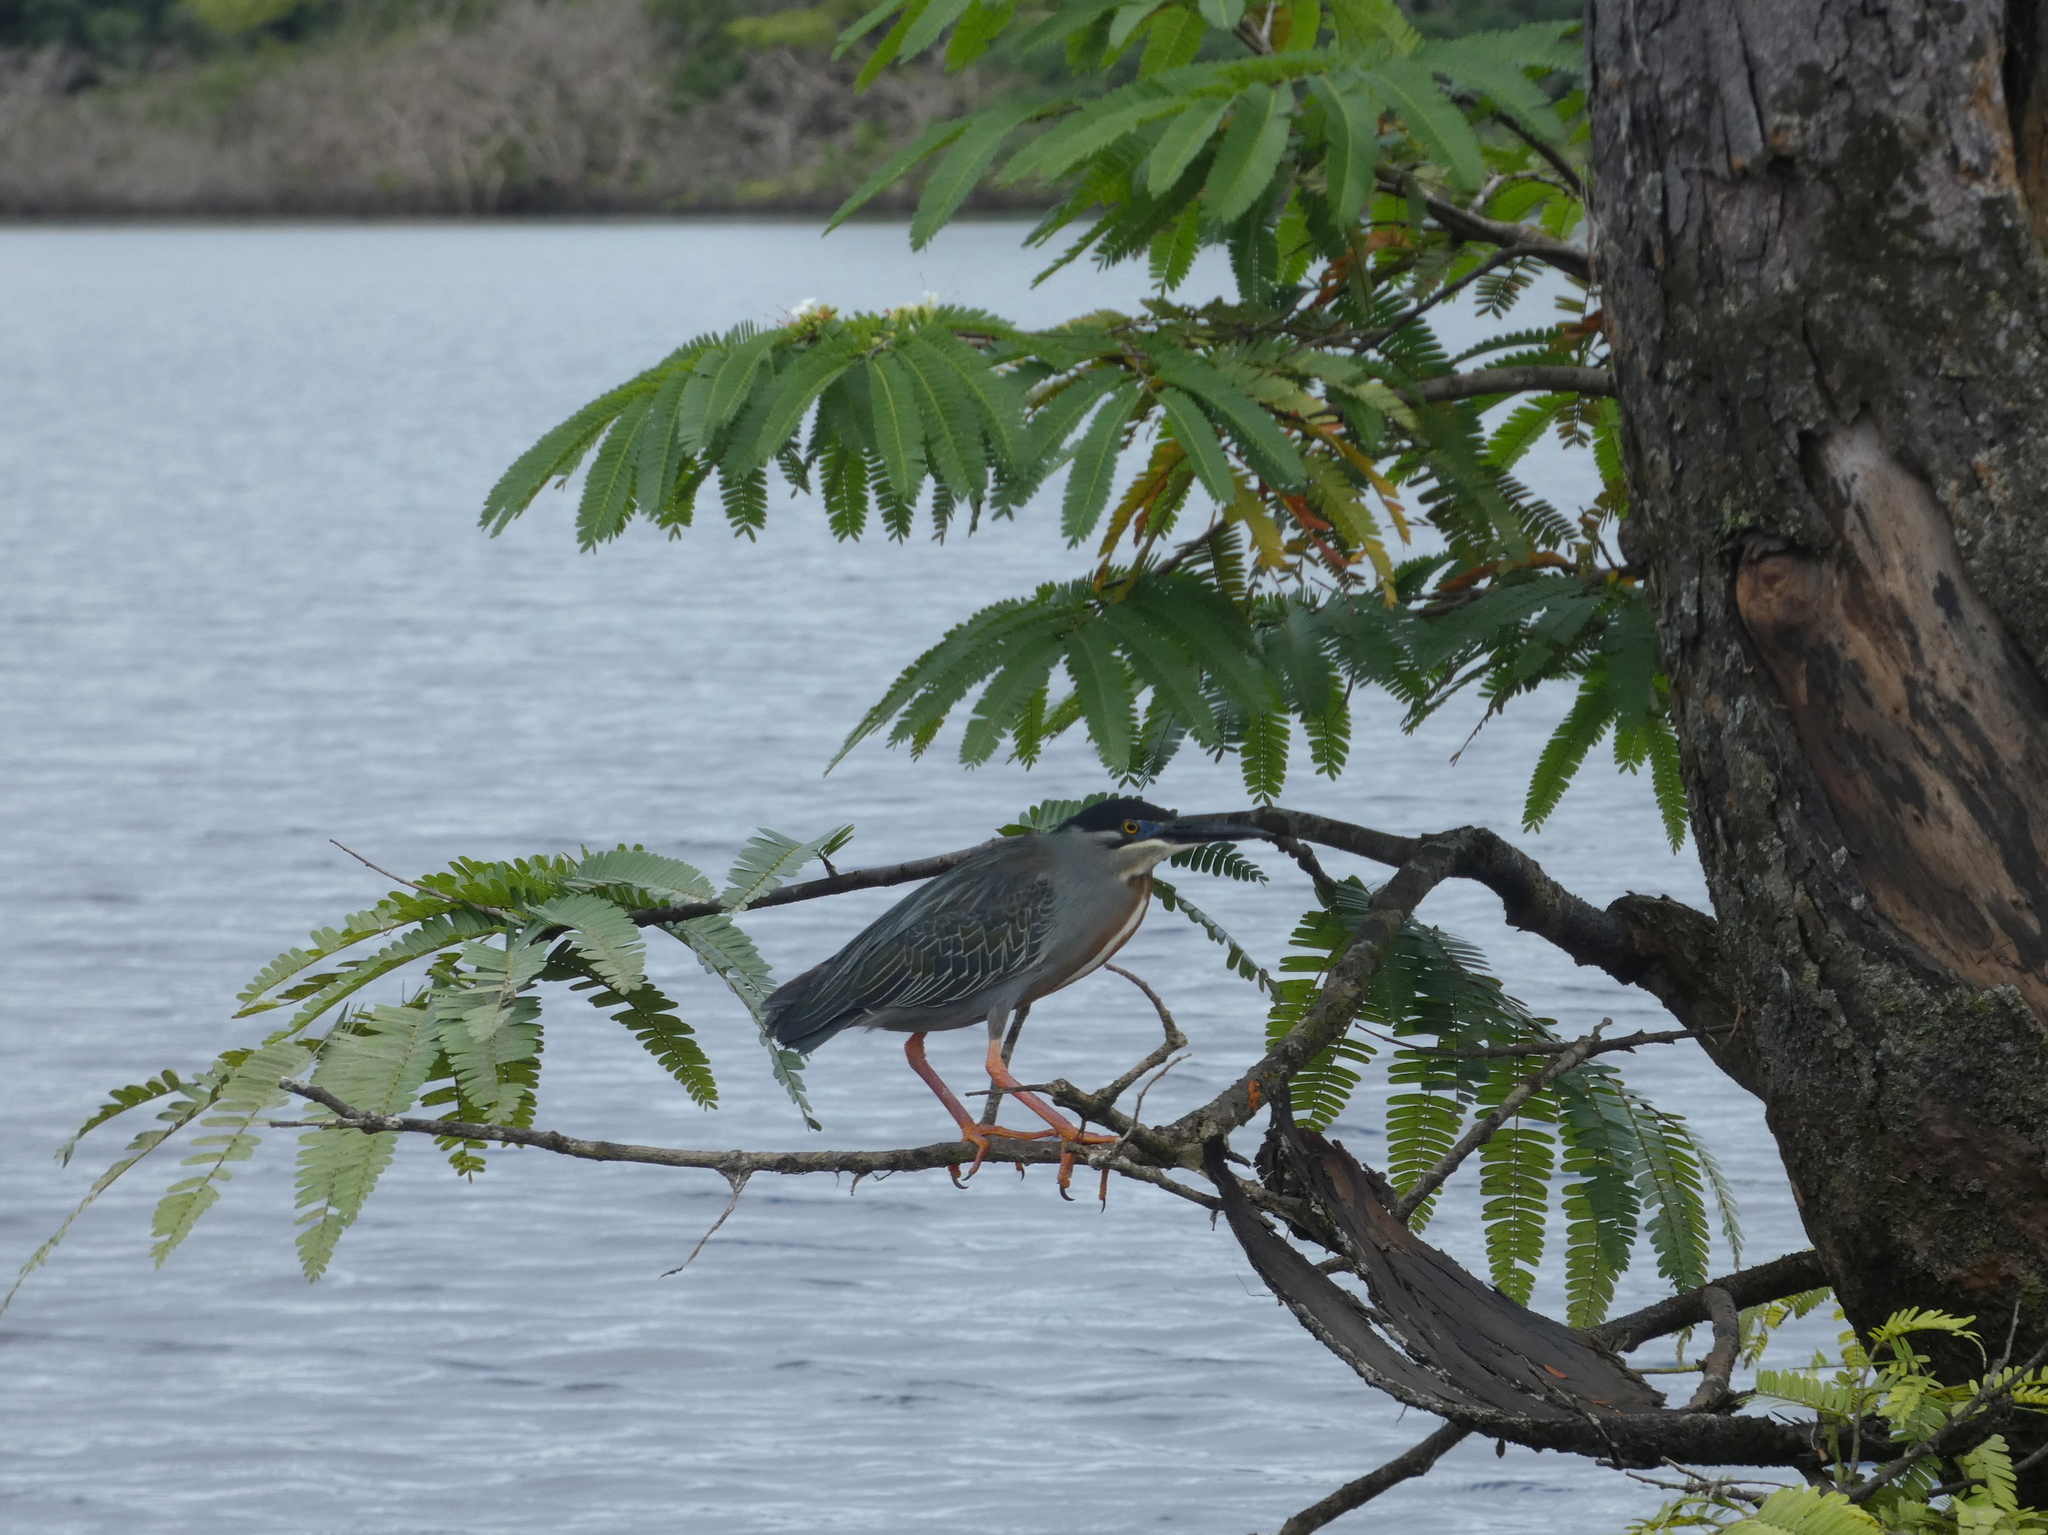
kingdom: Animalia
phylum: Chordata
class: Aves
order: Pelecaniformes
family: Ardeidae
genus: Butorides
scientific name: Butorides striata
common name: Striated heron
